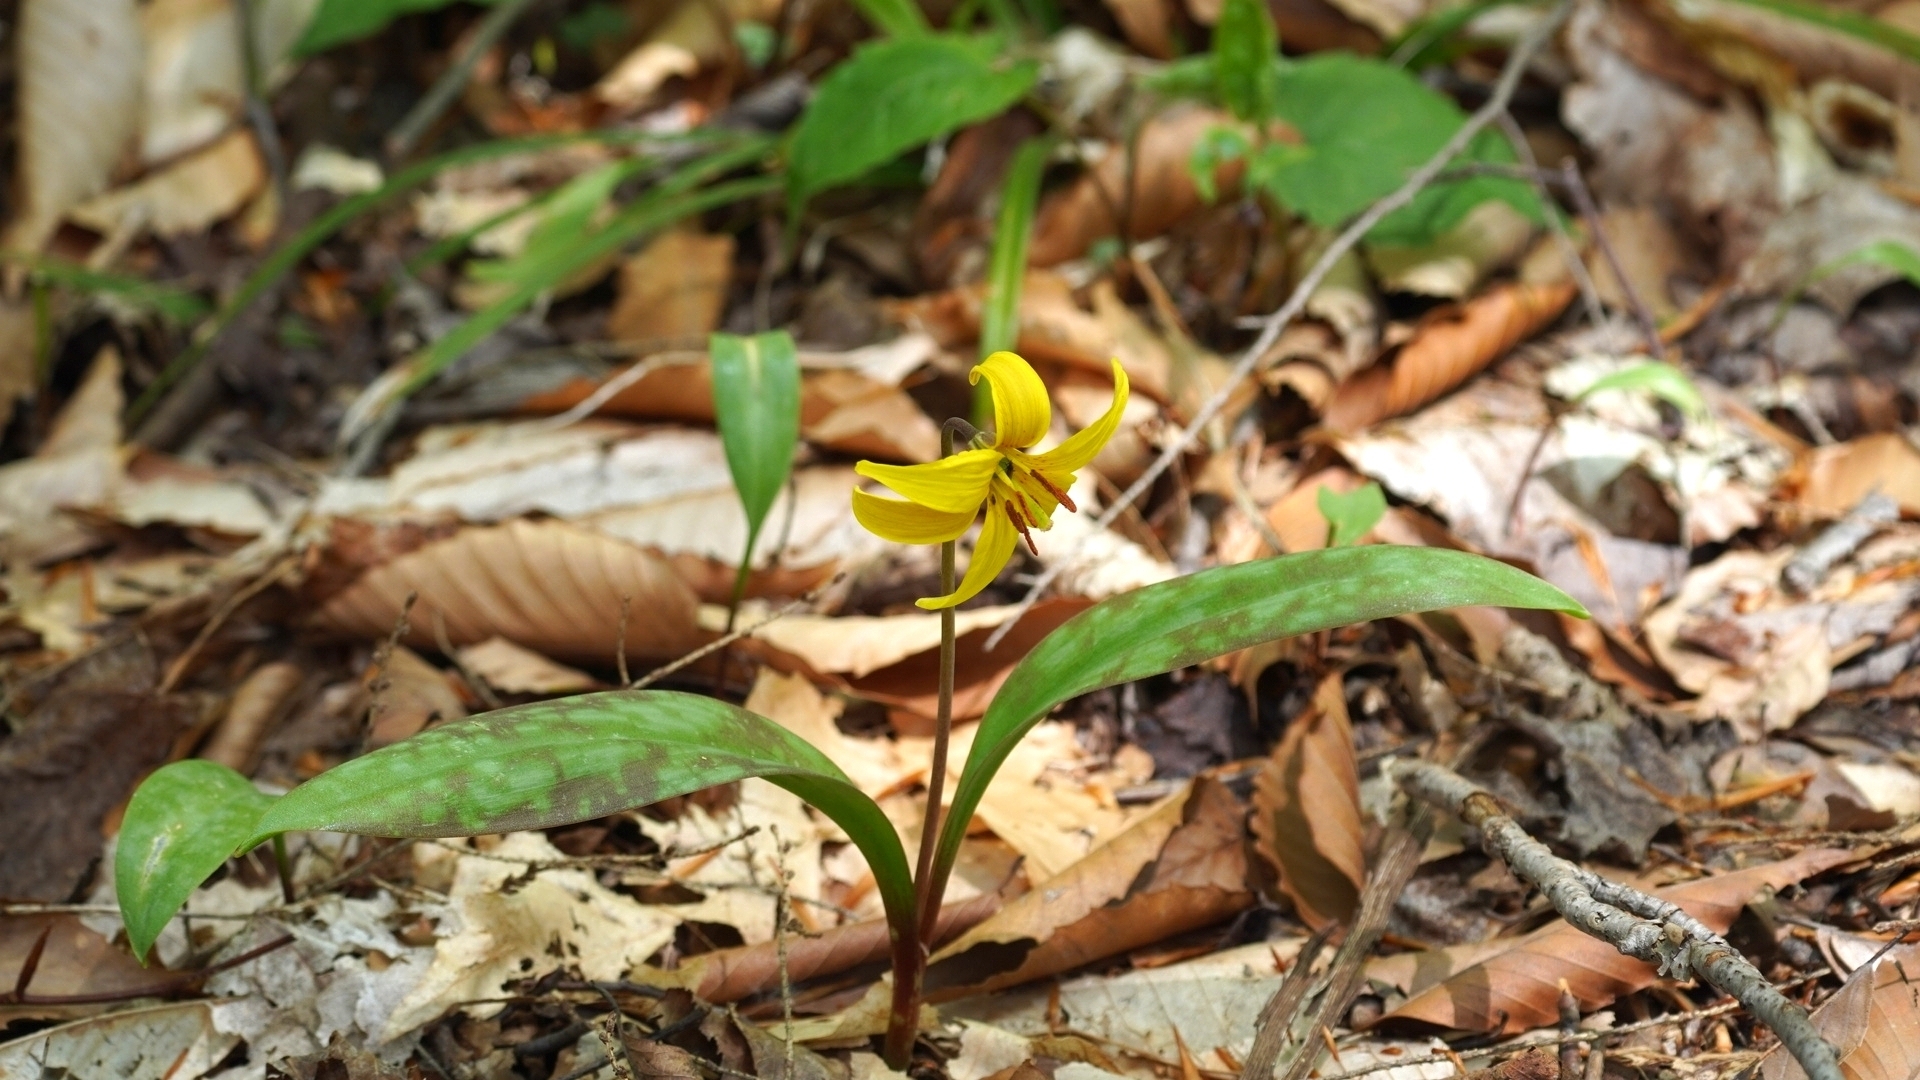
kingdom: Plantae
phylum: Tracheophyta
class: Liliopsida
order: Liliales
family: Liliaceae
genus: Erythronium
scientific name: Erythronium americanum
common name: Yellow adder's-tongue
